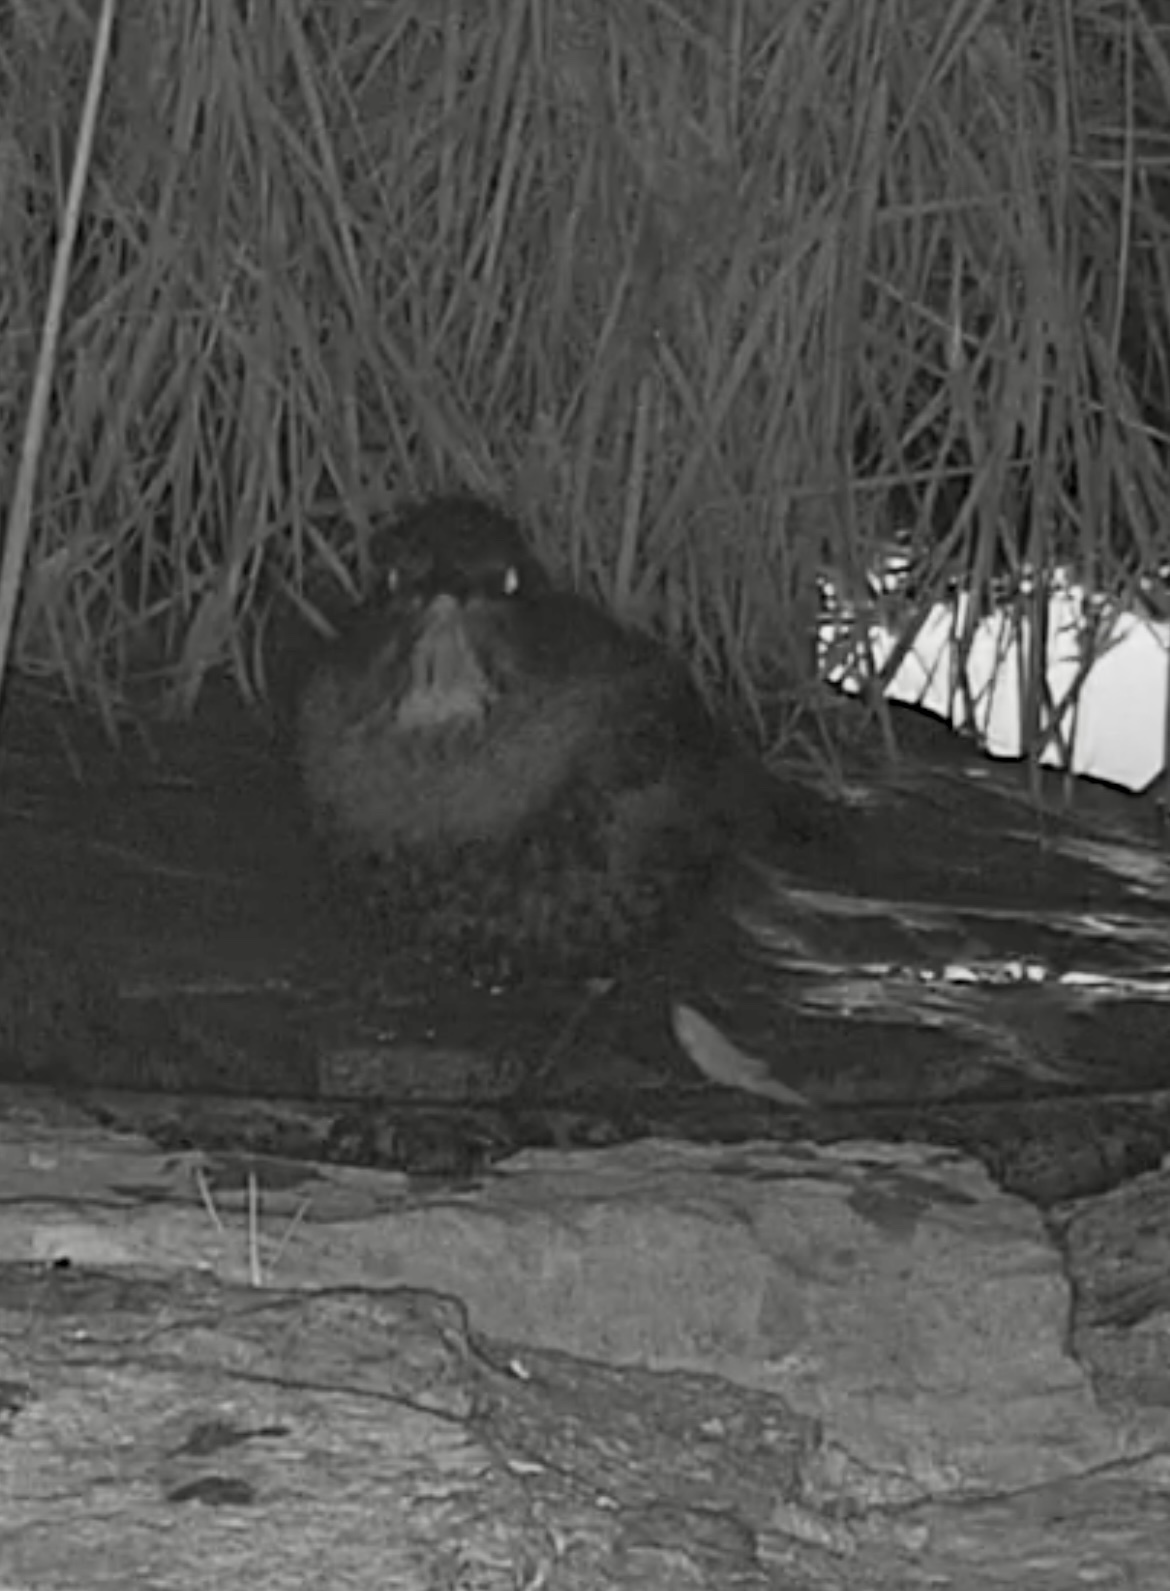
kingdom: Animalia
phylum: Chordata
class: Aves
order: Passeriformes
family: Turdidae
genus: Turdus
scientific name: Turdus torquatus
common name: Ring ouzel
